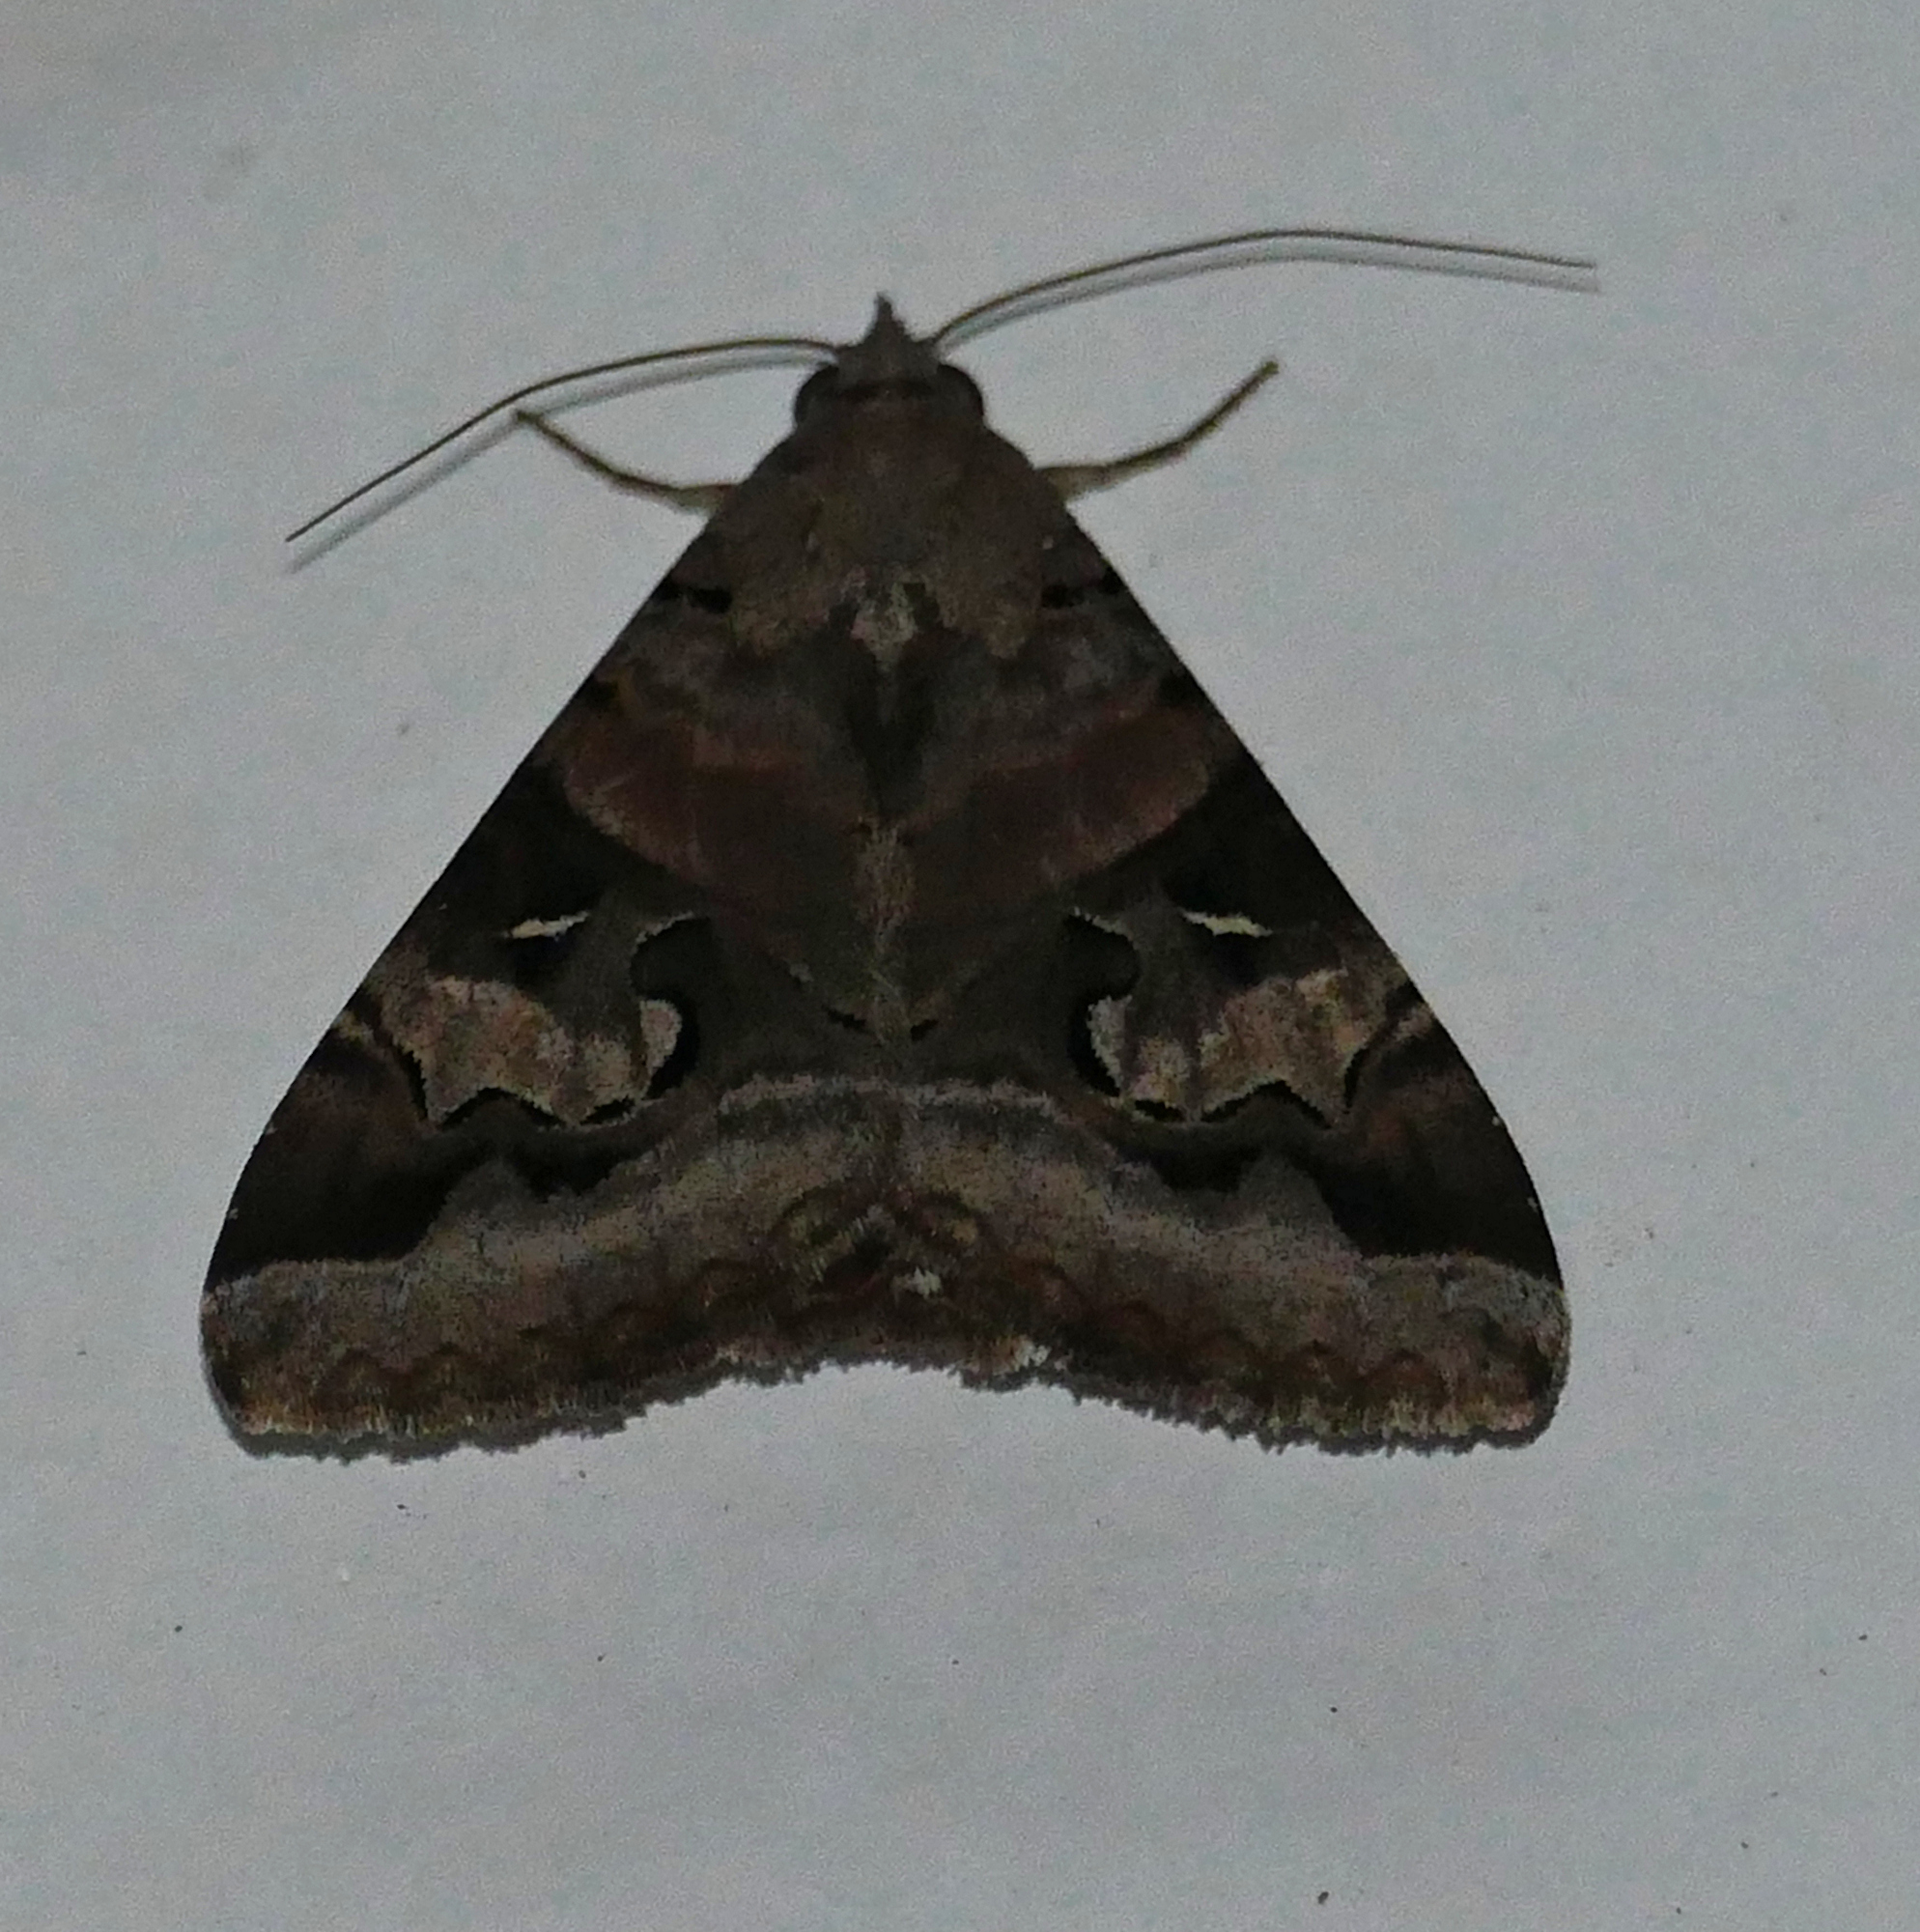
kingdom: Animalia
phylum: Arthropoda
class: Insecta
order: Lepidoptera
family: Erebidae
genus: Melipotis
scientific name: Melipotis indomita
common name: Moth
